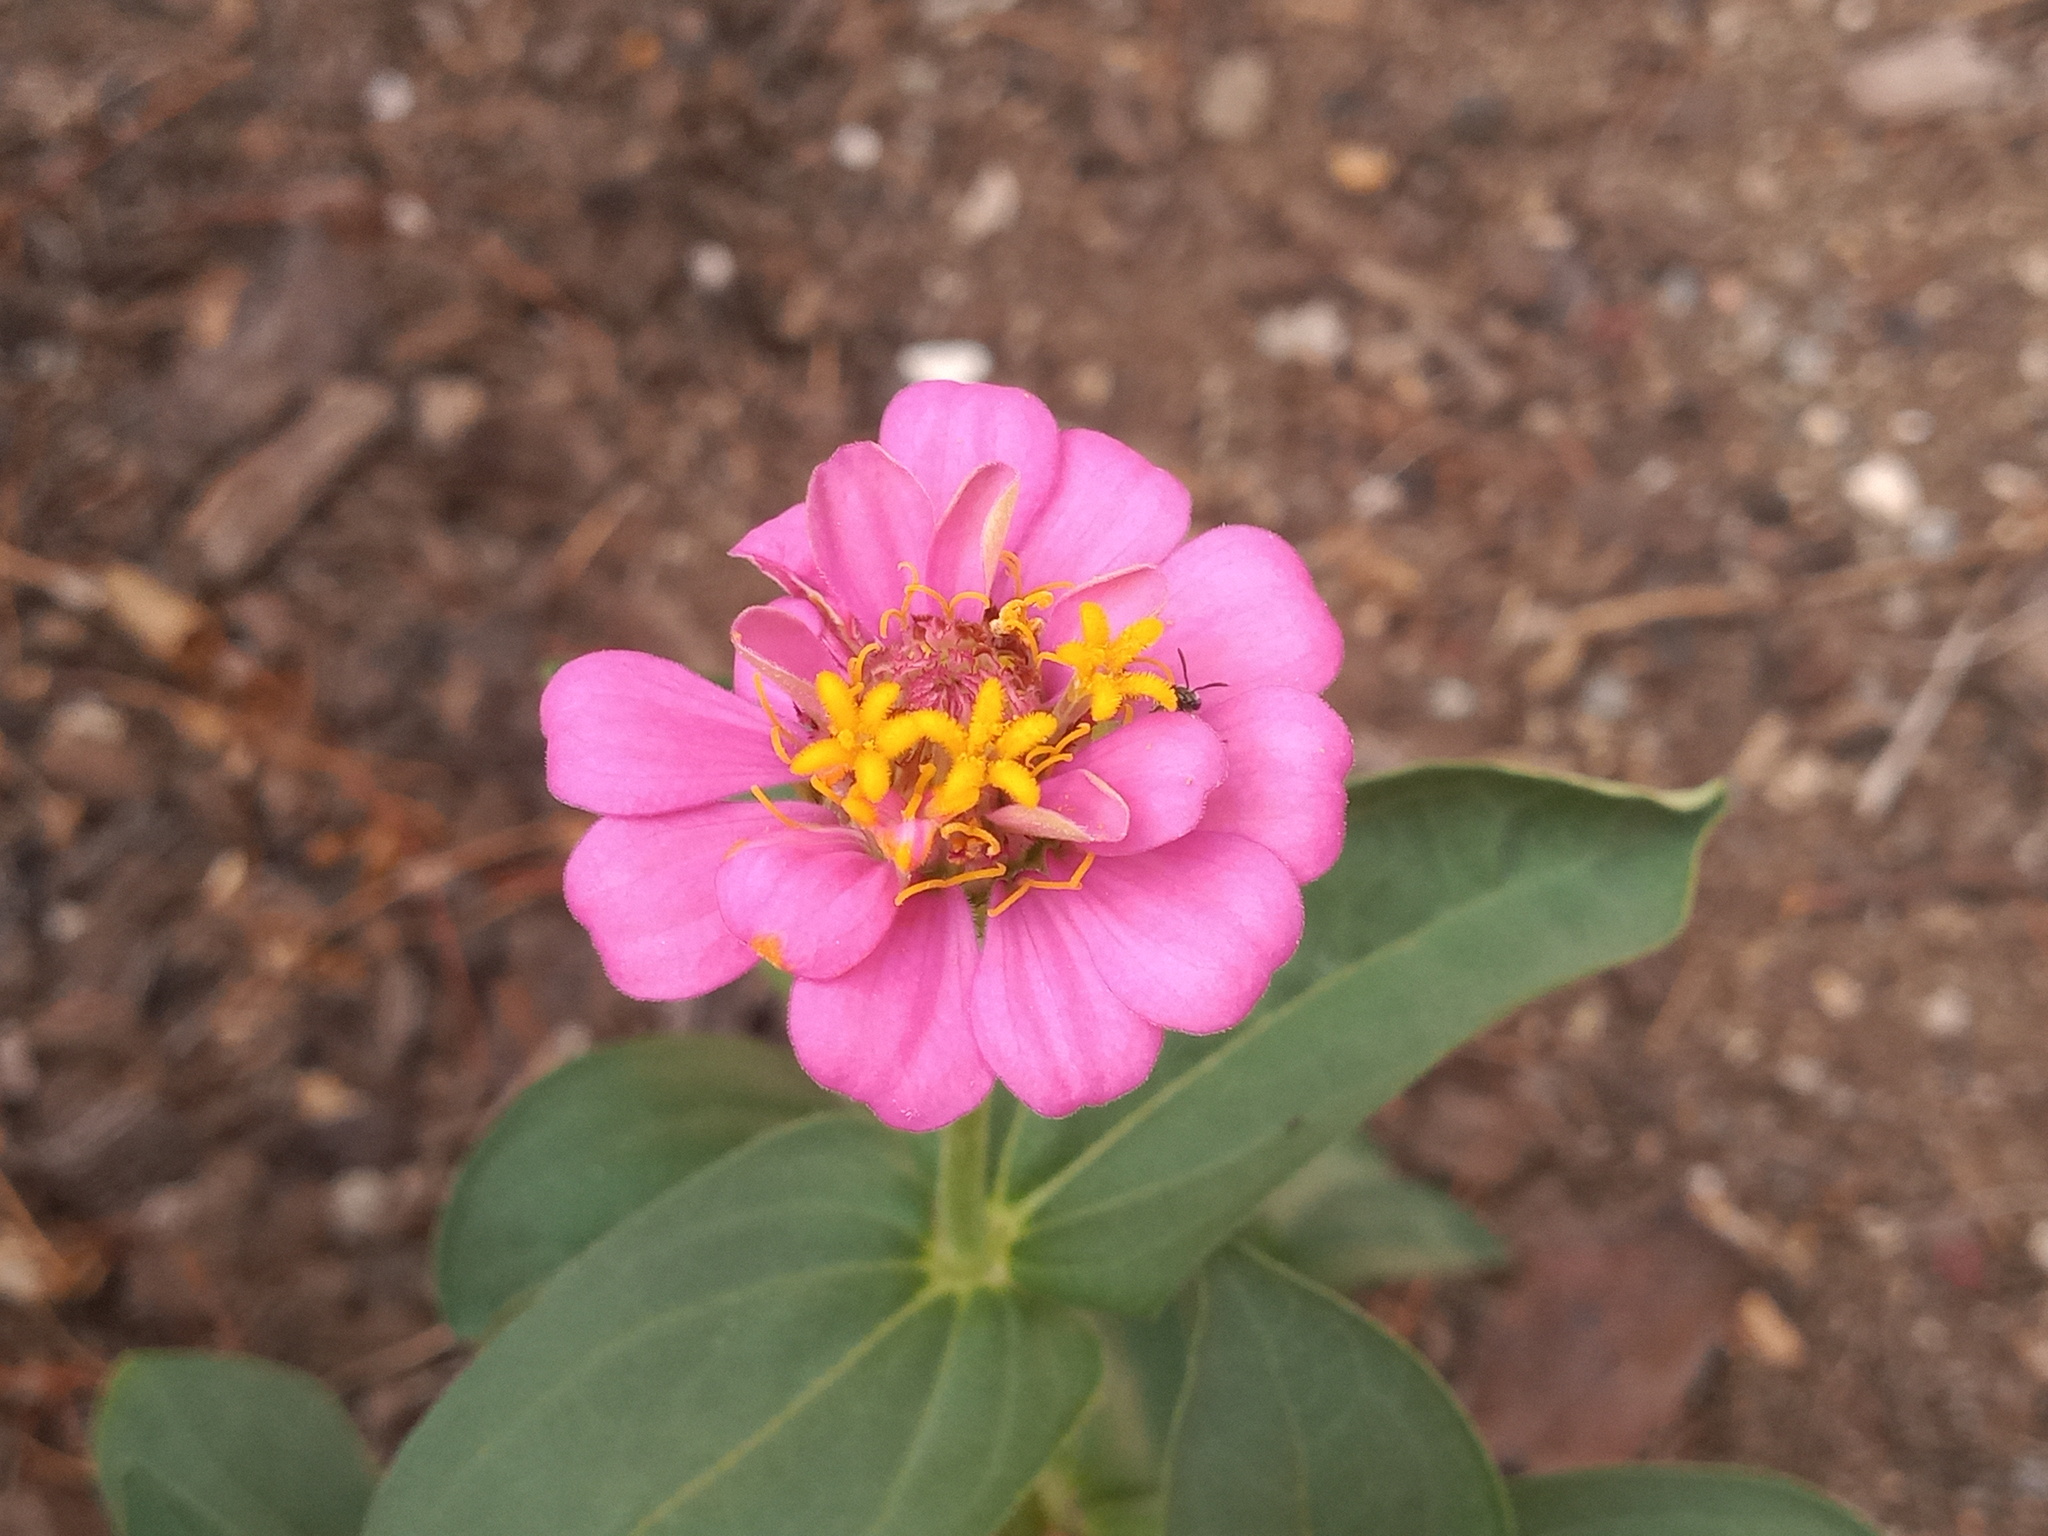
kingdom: Plantae
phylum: Tracheophyta
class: Magnoliopsida
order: Asterales
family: Asteraceae
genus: Zinnia
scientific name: Zinnia elegans
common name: Youth-and-age
